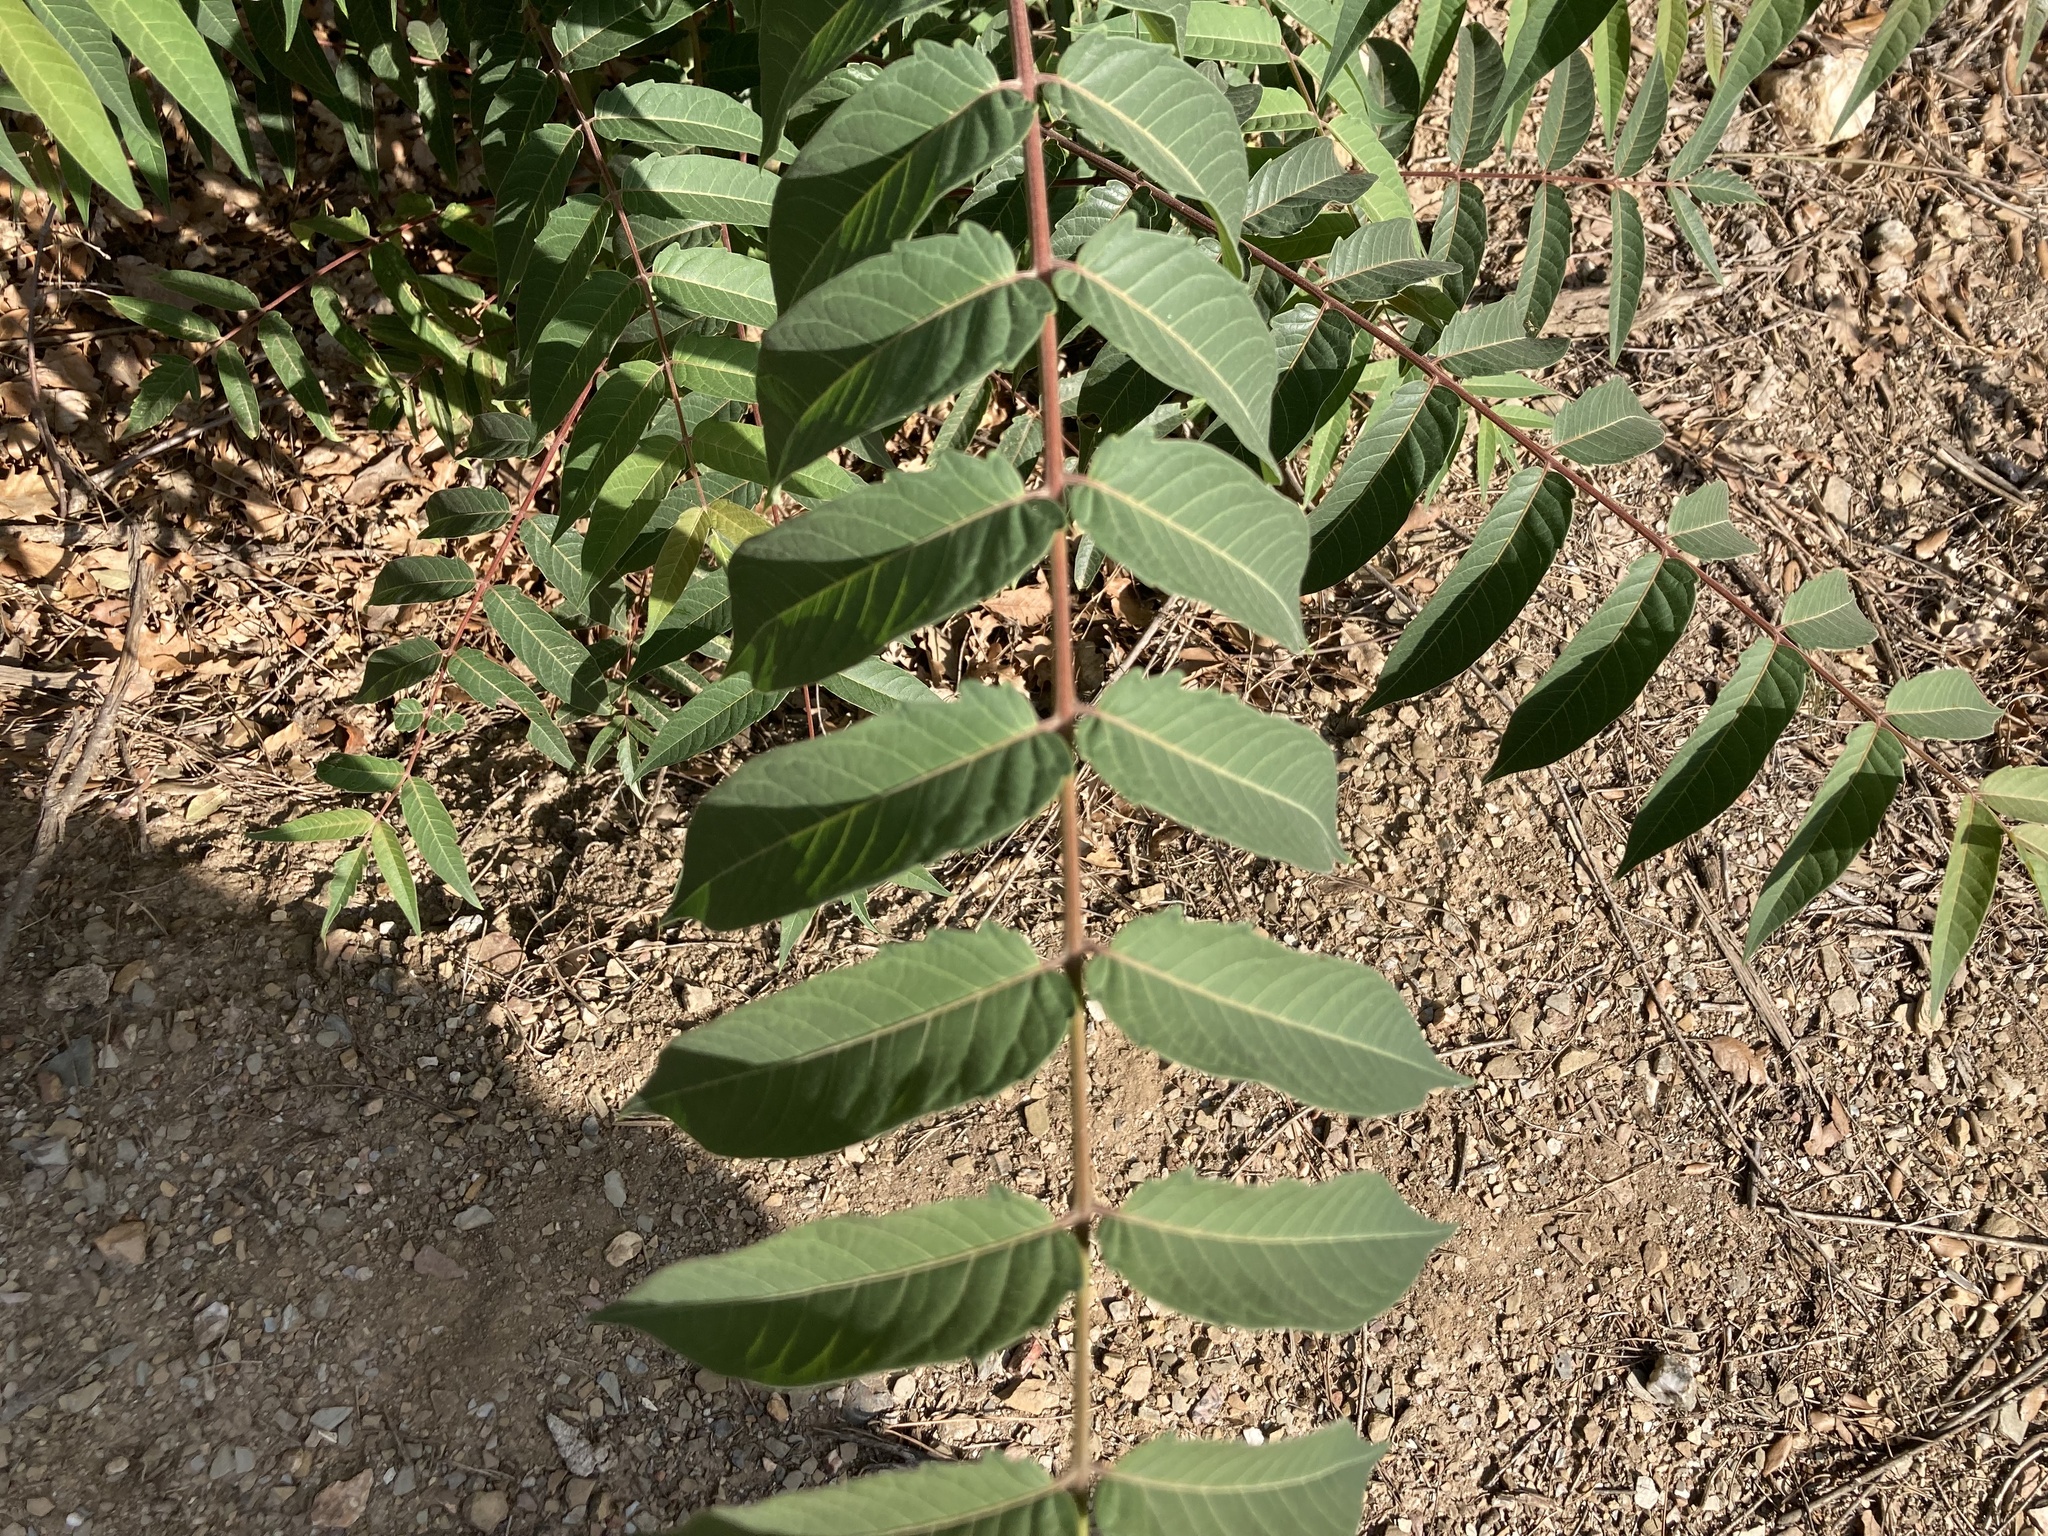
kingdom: Plantae
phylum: Tracheophyta
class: Magnoliopsida
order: Sapindales
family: Simaroubaceae
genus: Ailanthus
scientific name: Ailanthus altissima
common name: Tree-of-heaven
